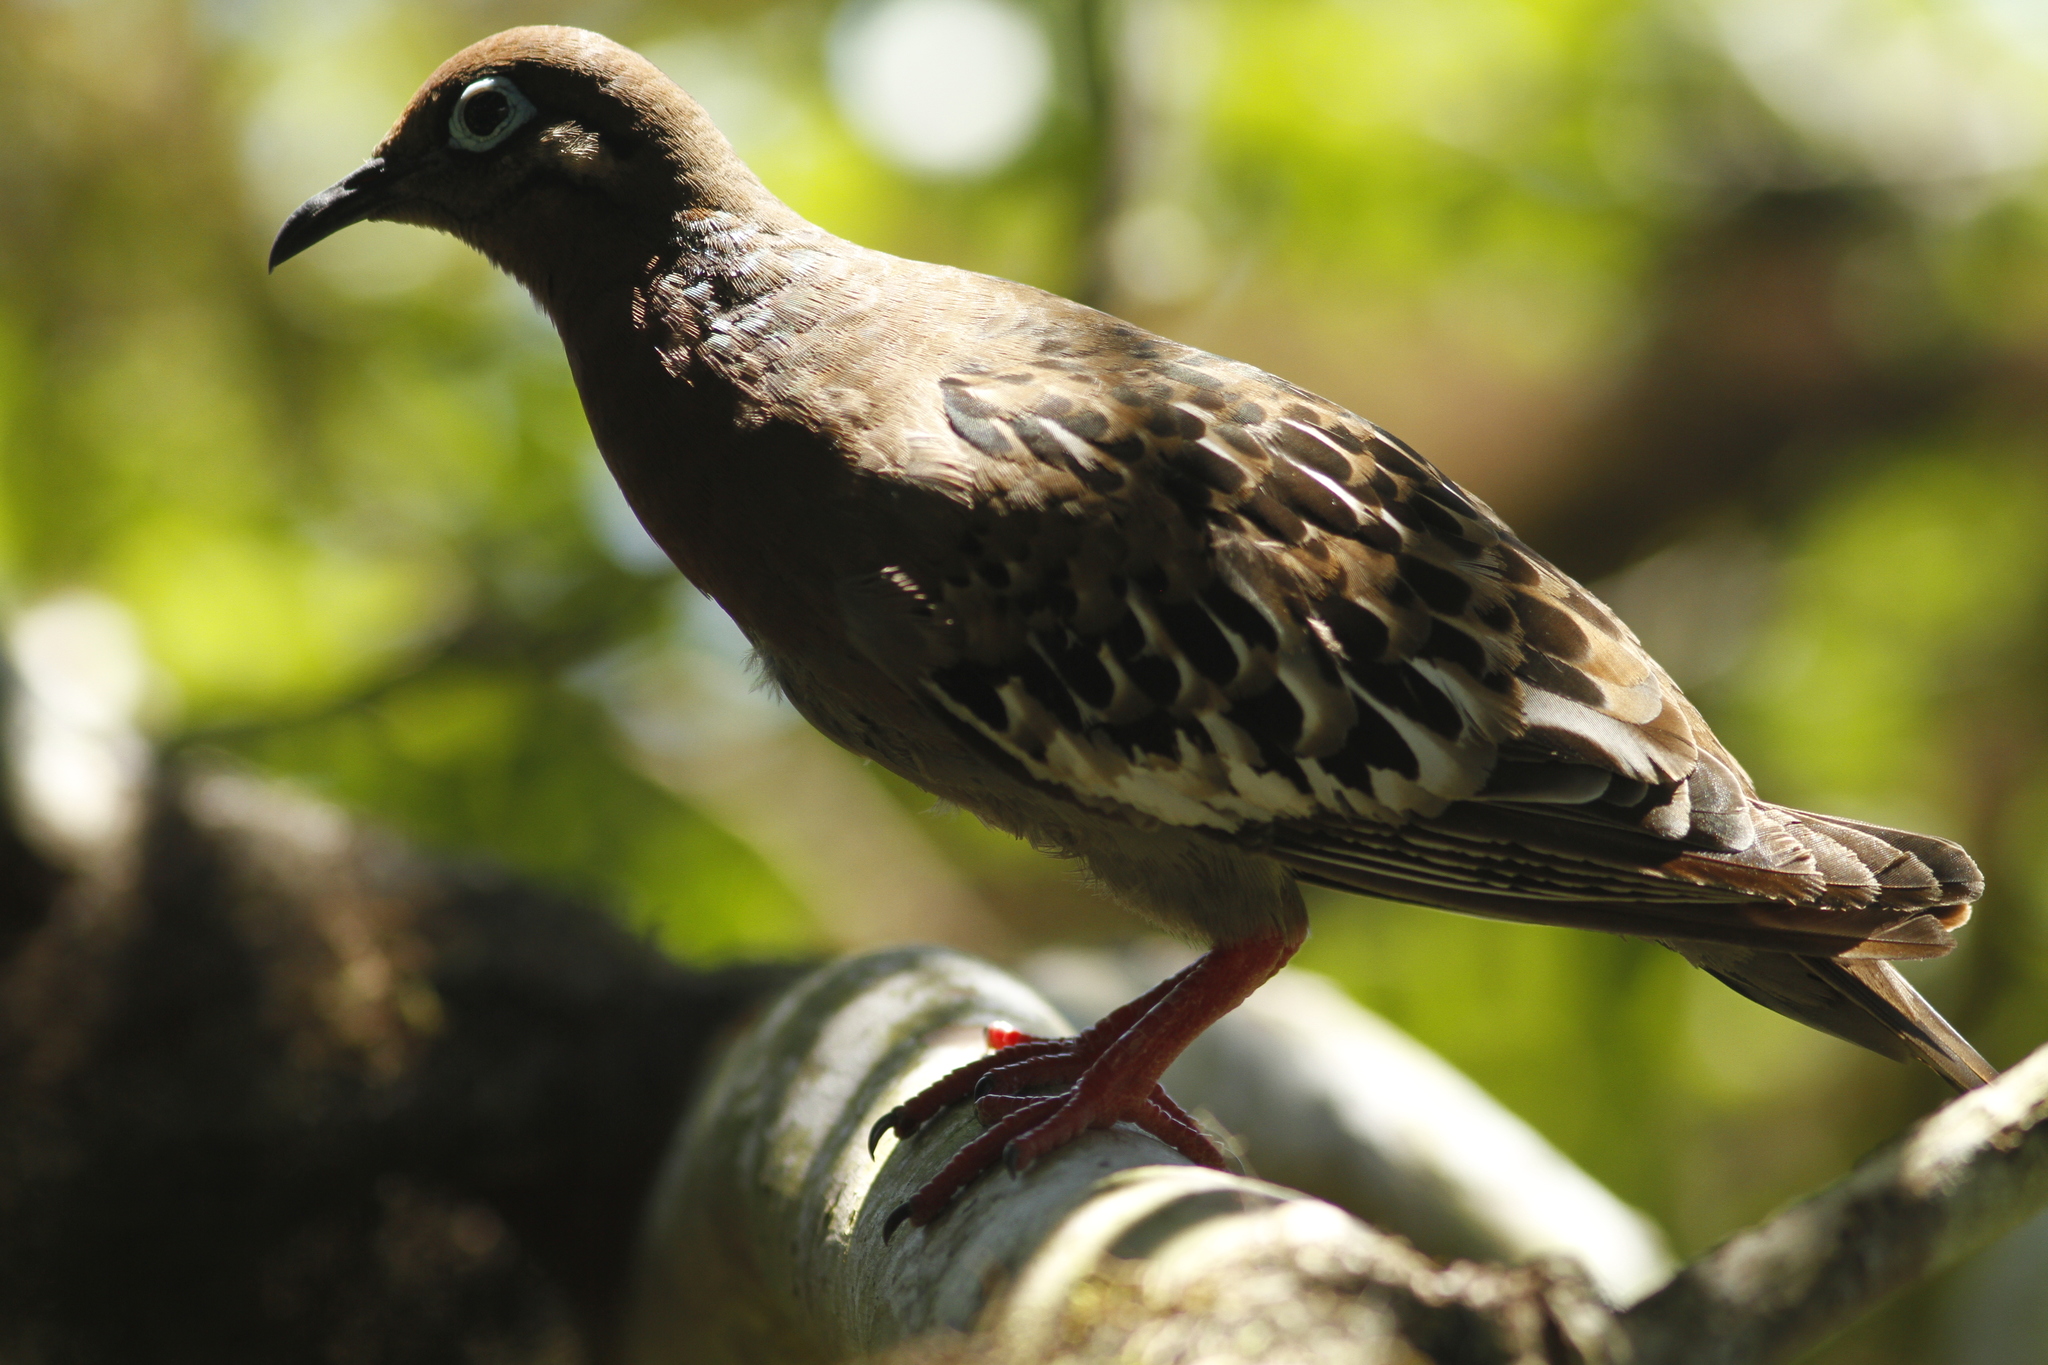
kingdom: Animalia
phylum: Chordata
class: Aves
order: Columbiformes
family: Columbidae
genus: Zenaida
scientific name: Zenaida galapagoensis
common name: Galapagos dove
